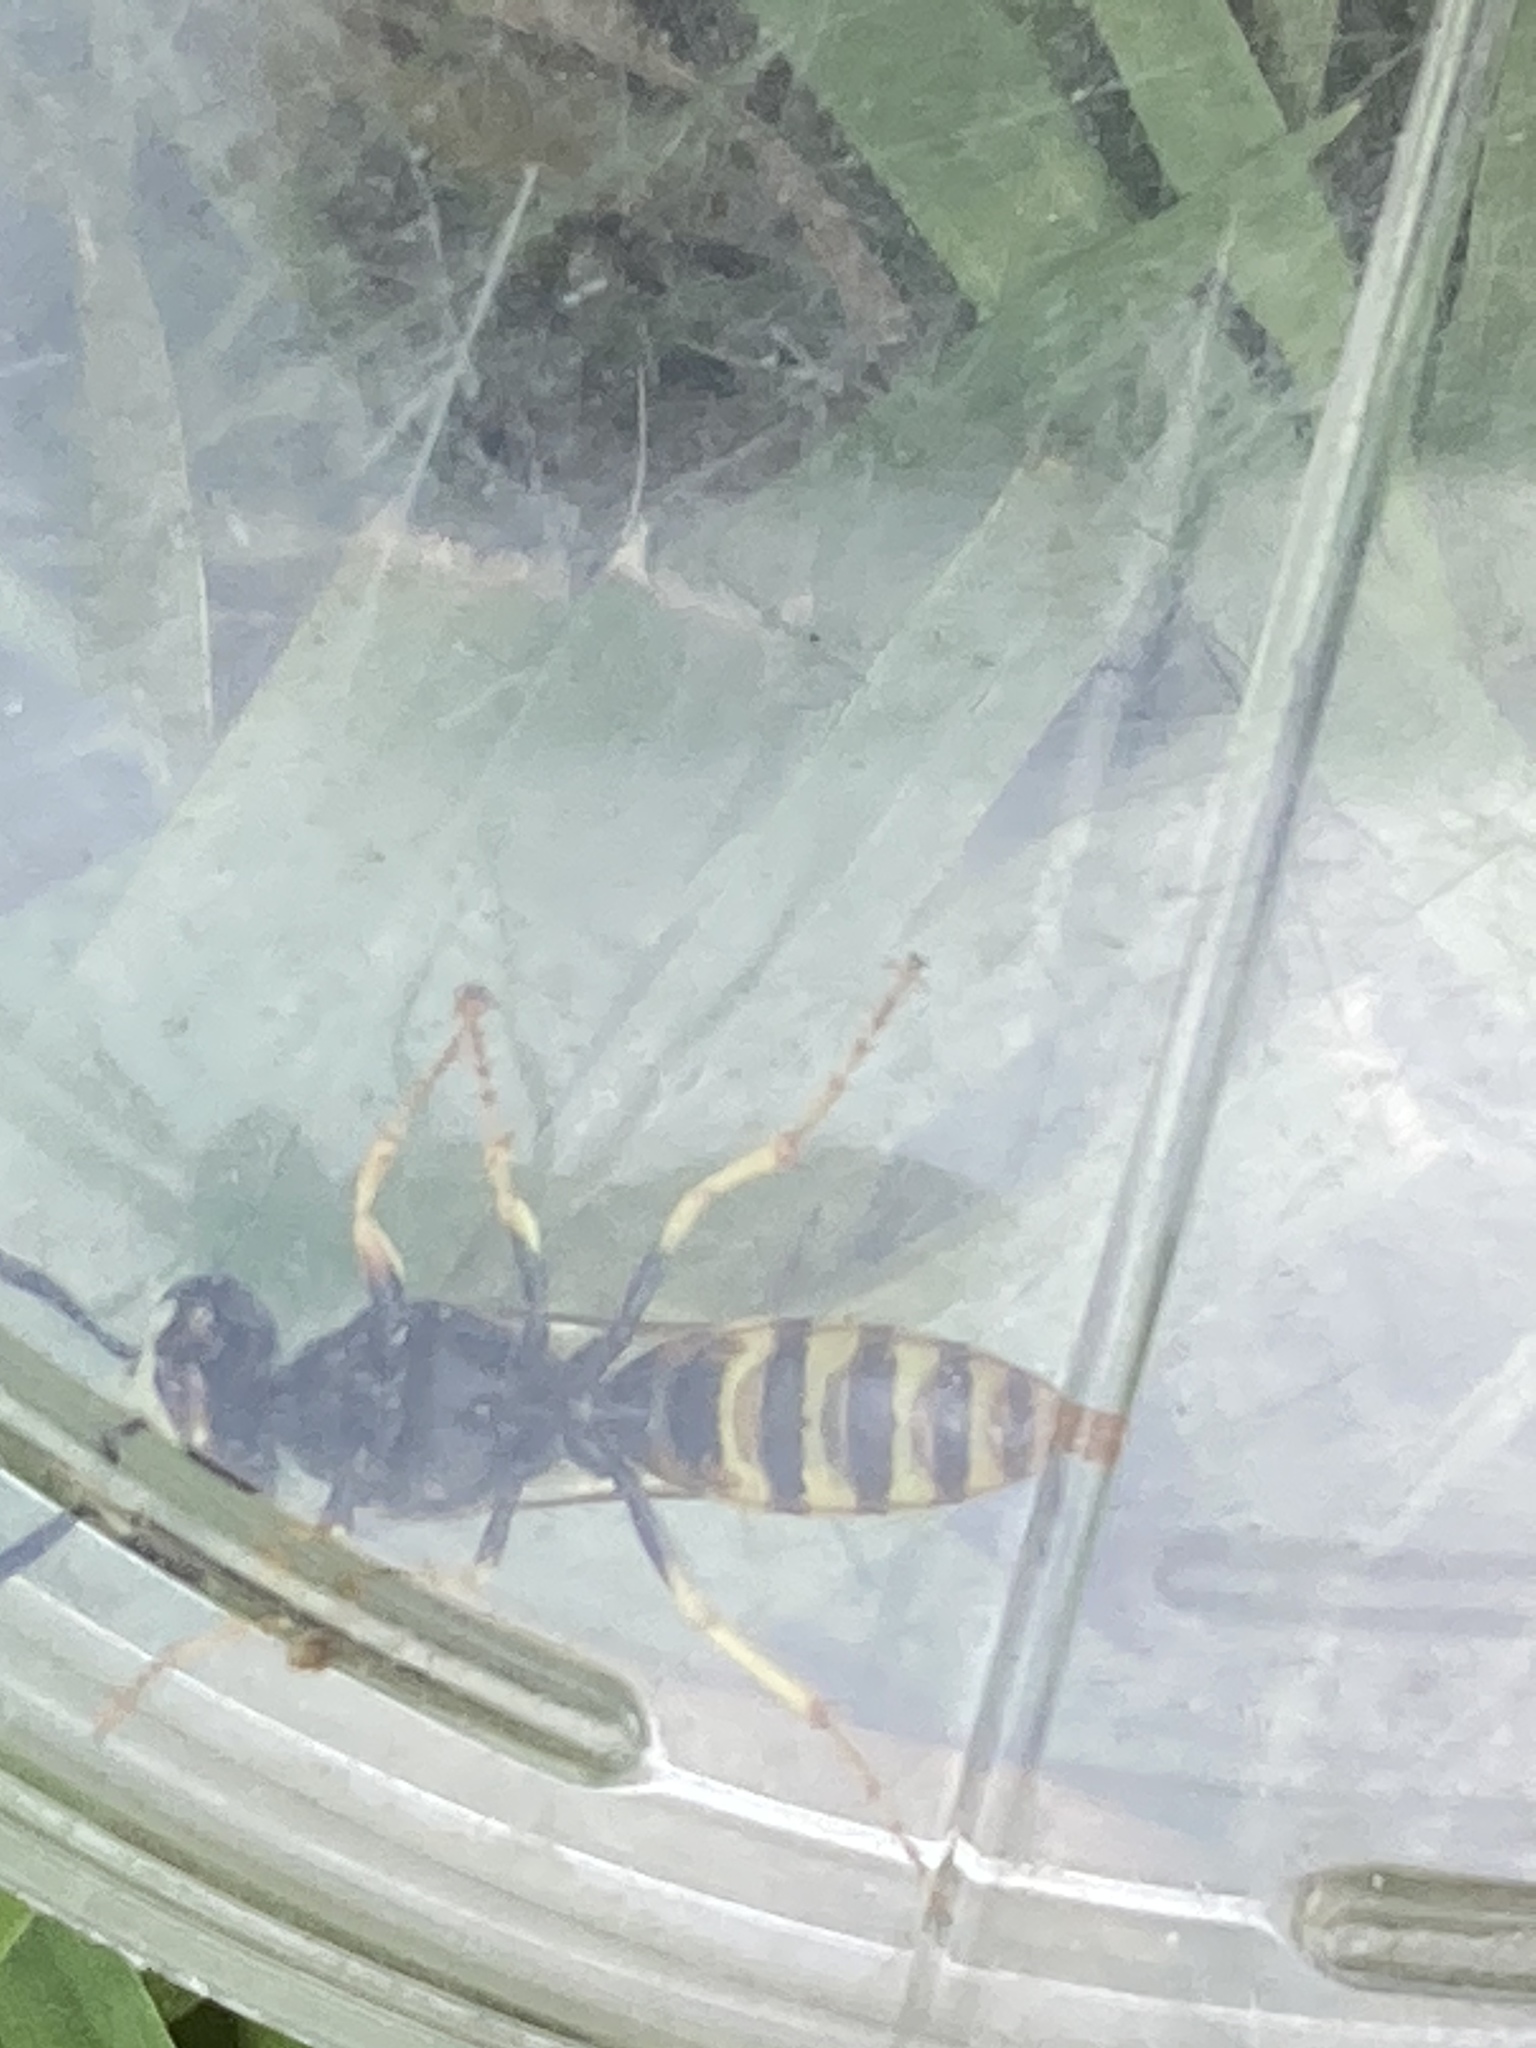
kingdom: Animalia
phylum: Arthropoda
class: Insecta
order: Hymenoptera
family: Crabronidae
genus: Philanthus
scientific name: Philanthus triangulum
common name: Bee wolf
